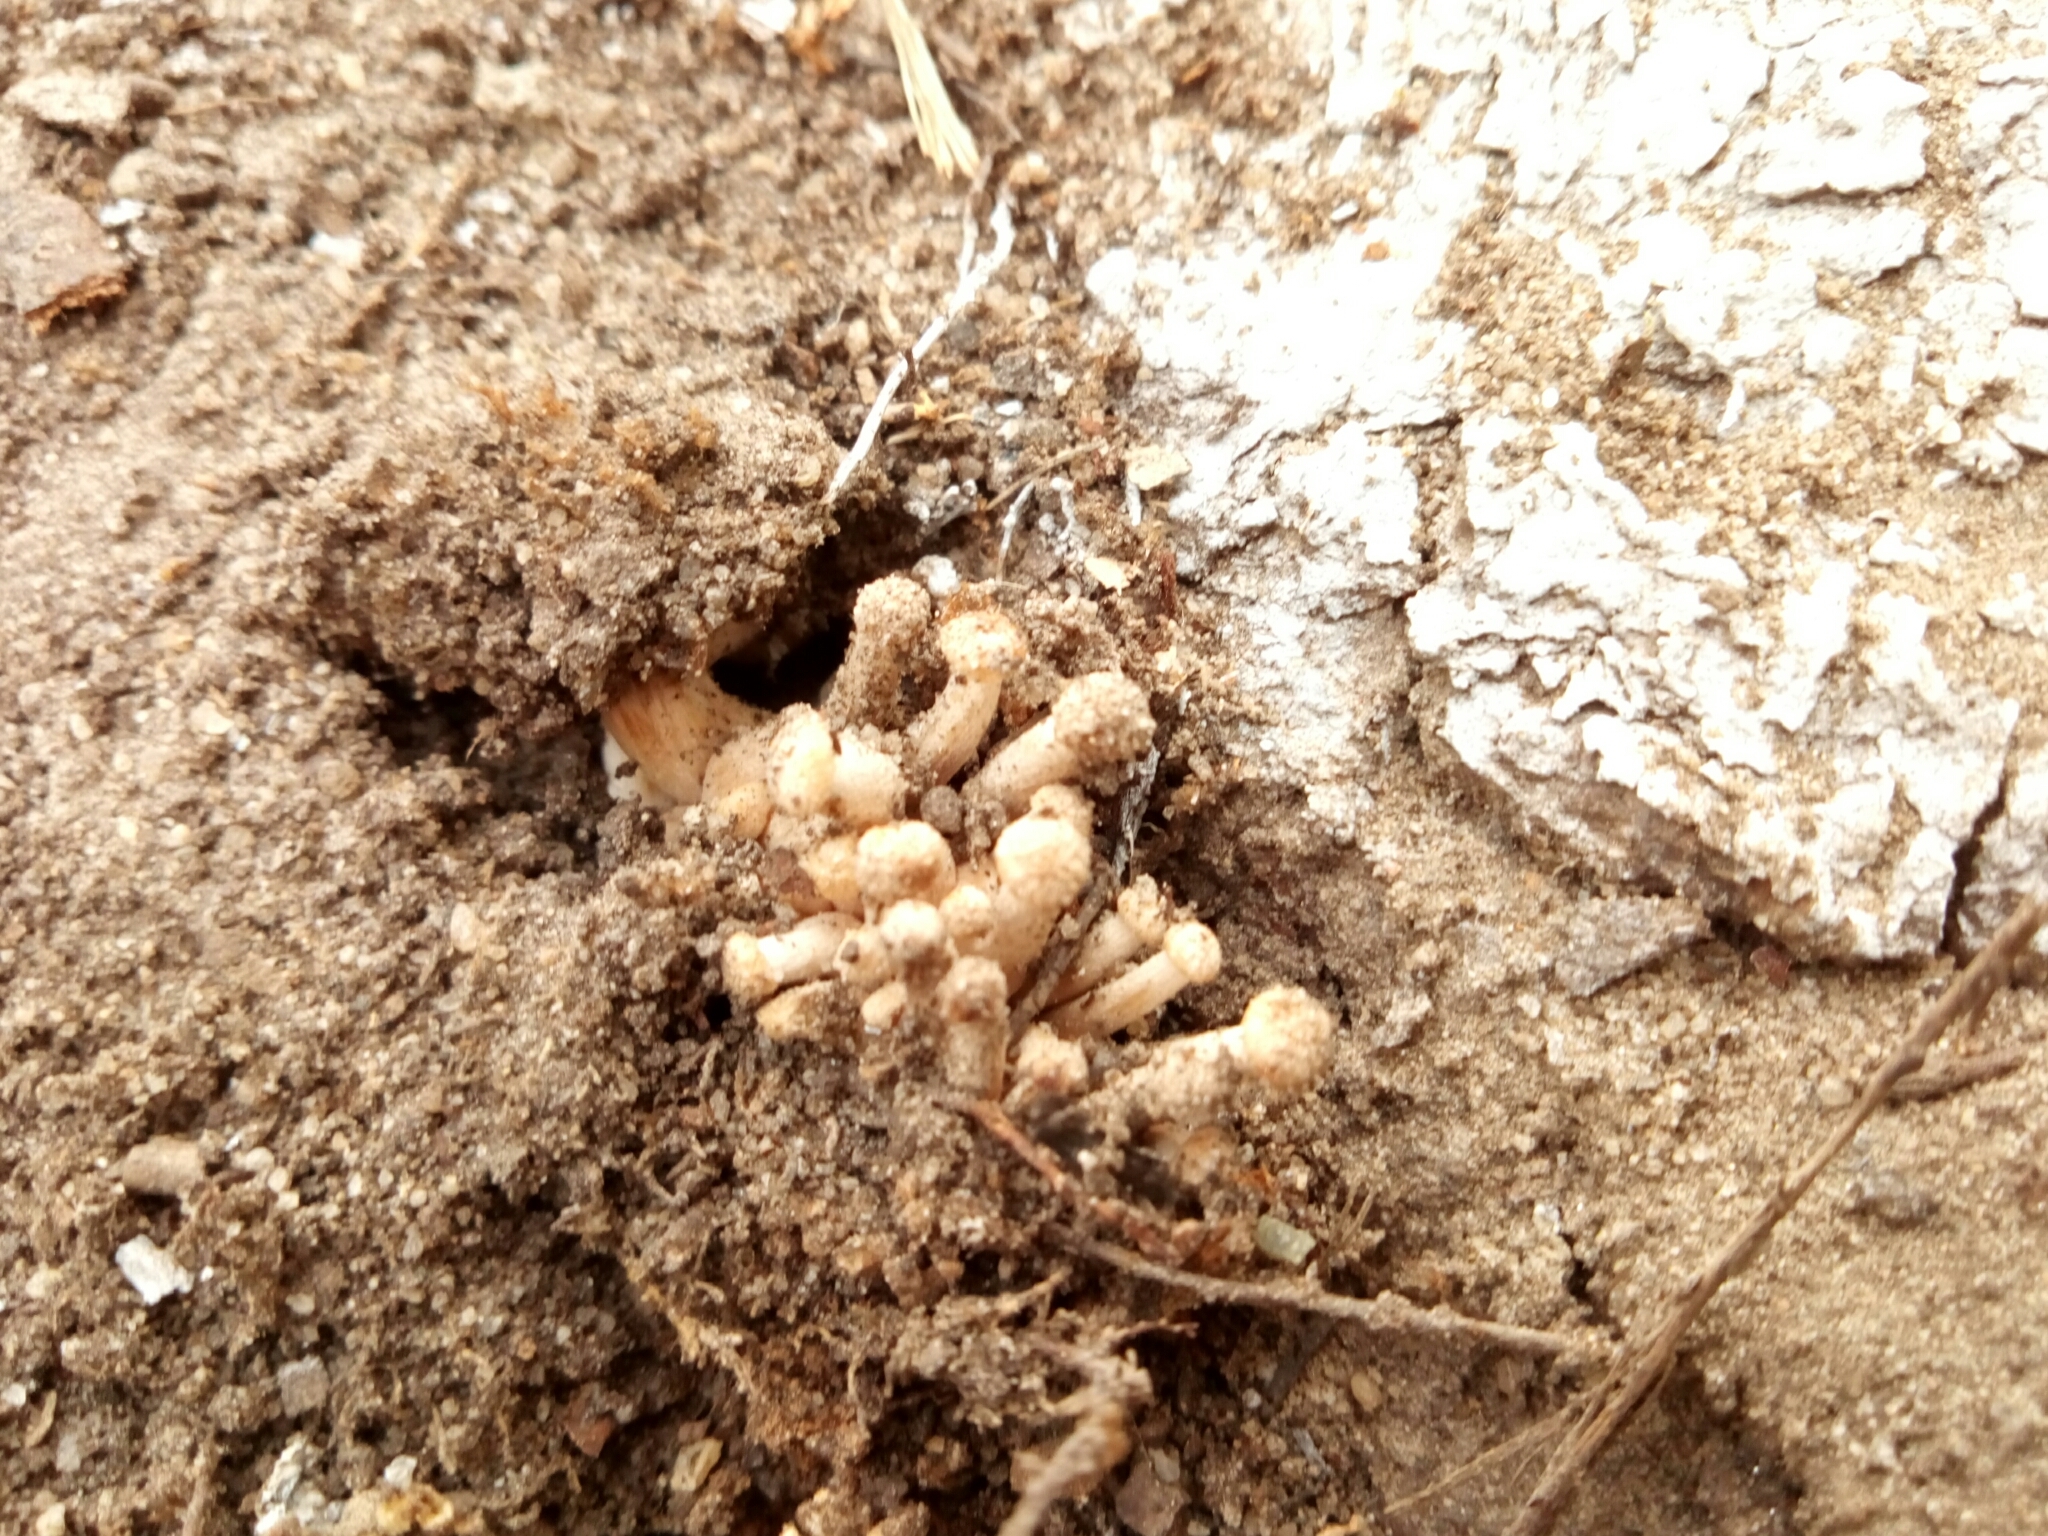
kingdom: Fungi
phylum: Basidiomycota
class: Agaricomycetes
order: Agaricales
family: Physalacriaceae
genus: Desarmillaria
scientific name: Desarmillaria caespitosa
